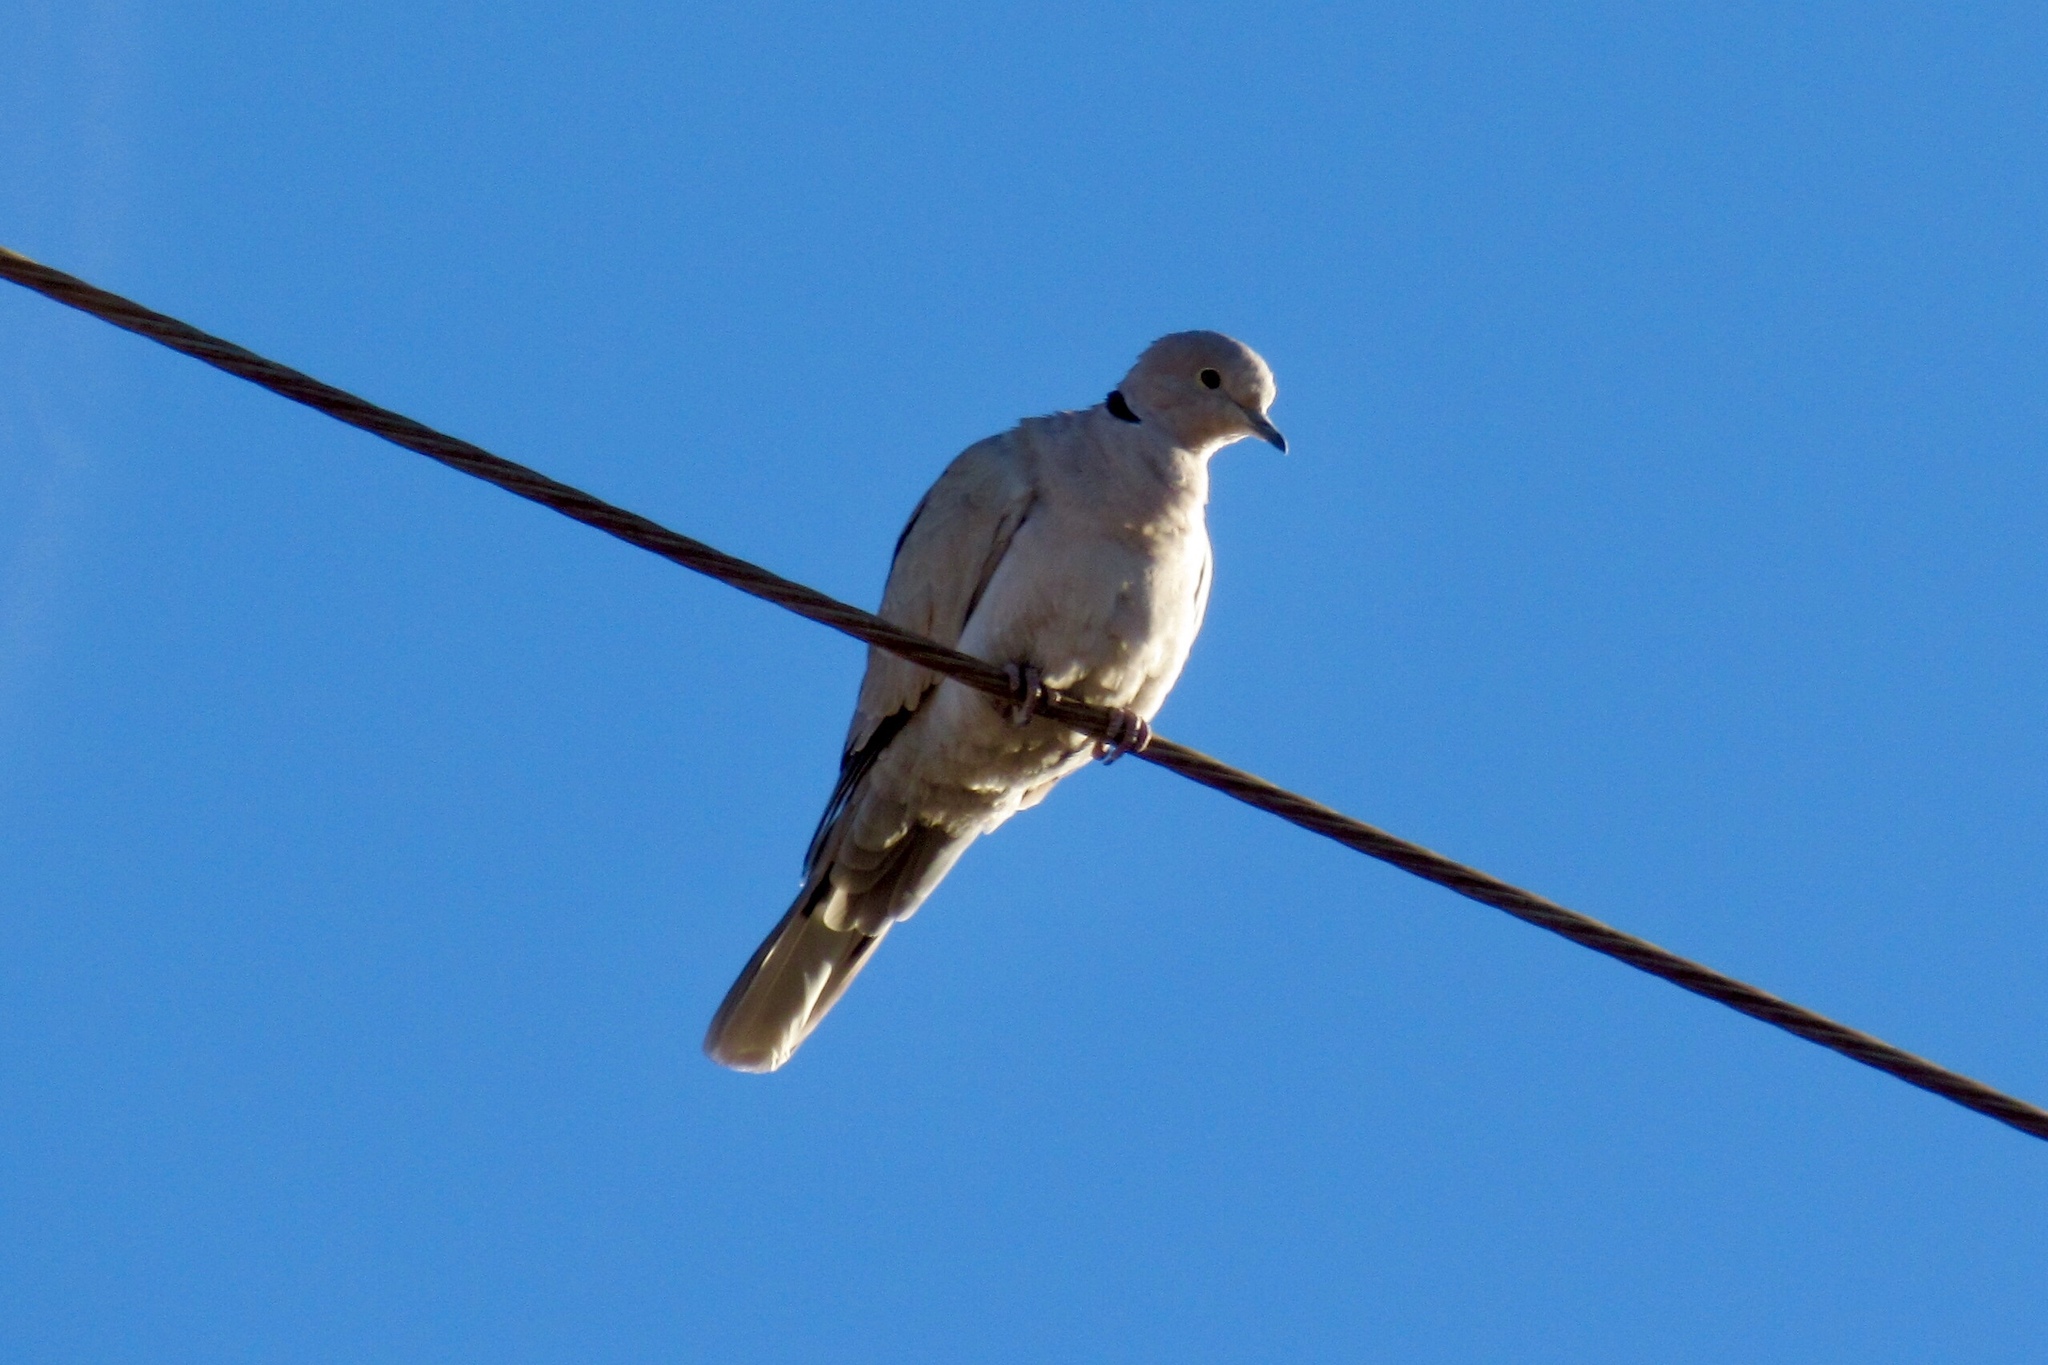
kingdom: Animalia
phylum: Chordata
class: Aves
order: Columbiformes
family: Columbidae
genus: Streptopelia
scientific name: Streptopelia decaocto
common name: Eurasian collared dove
